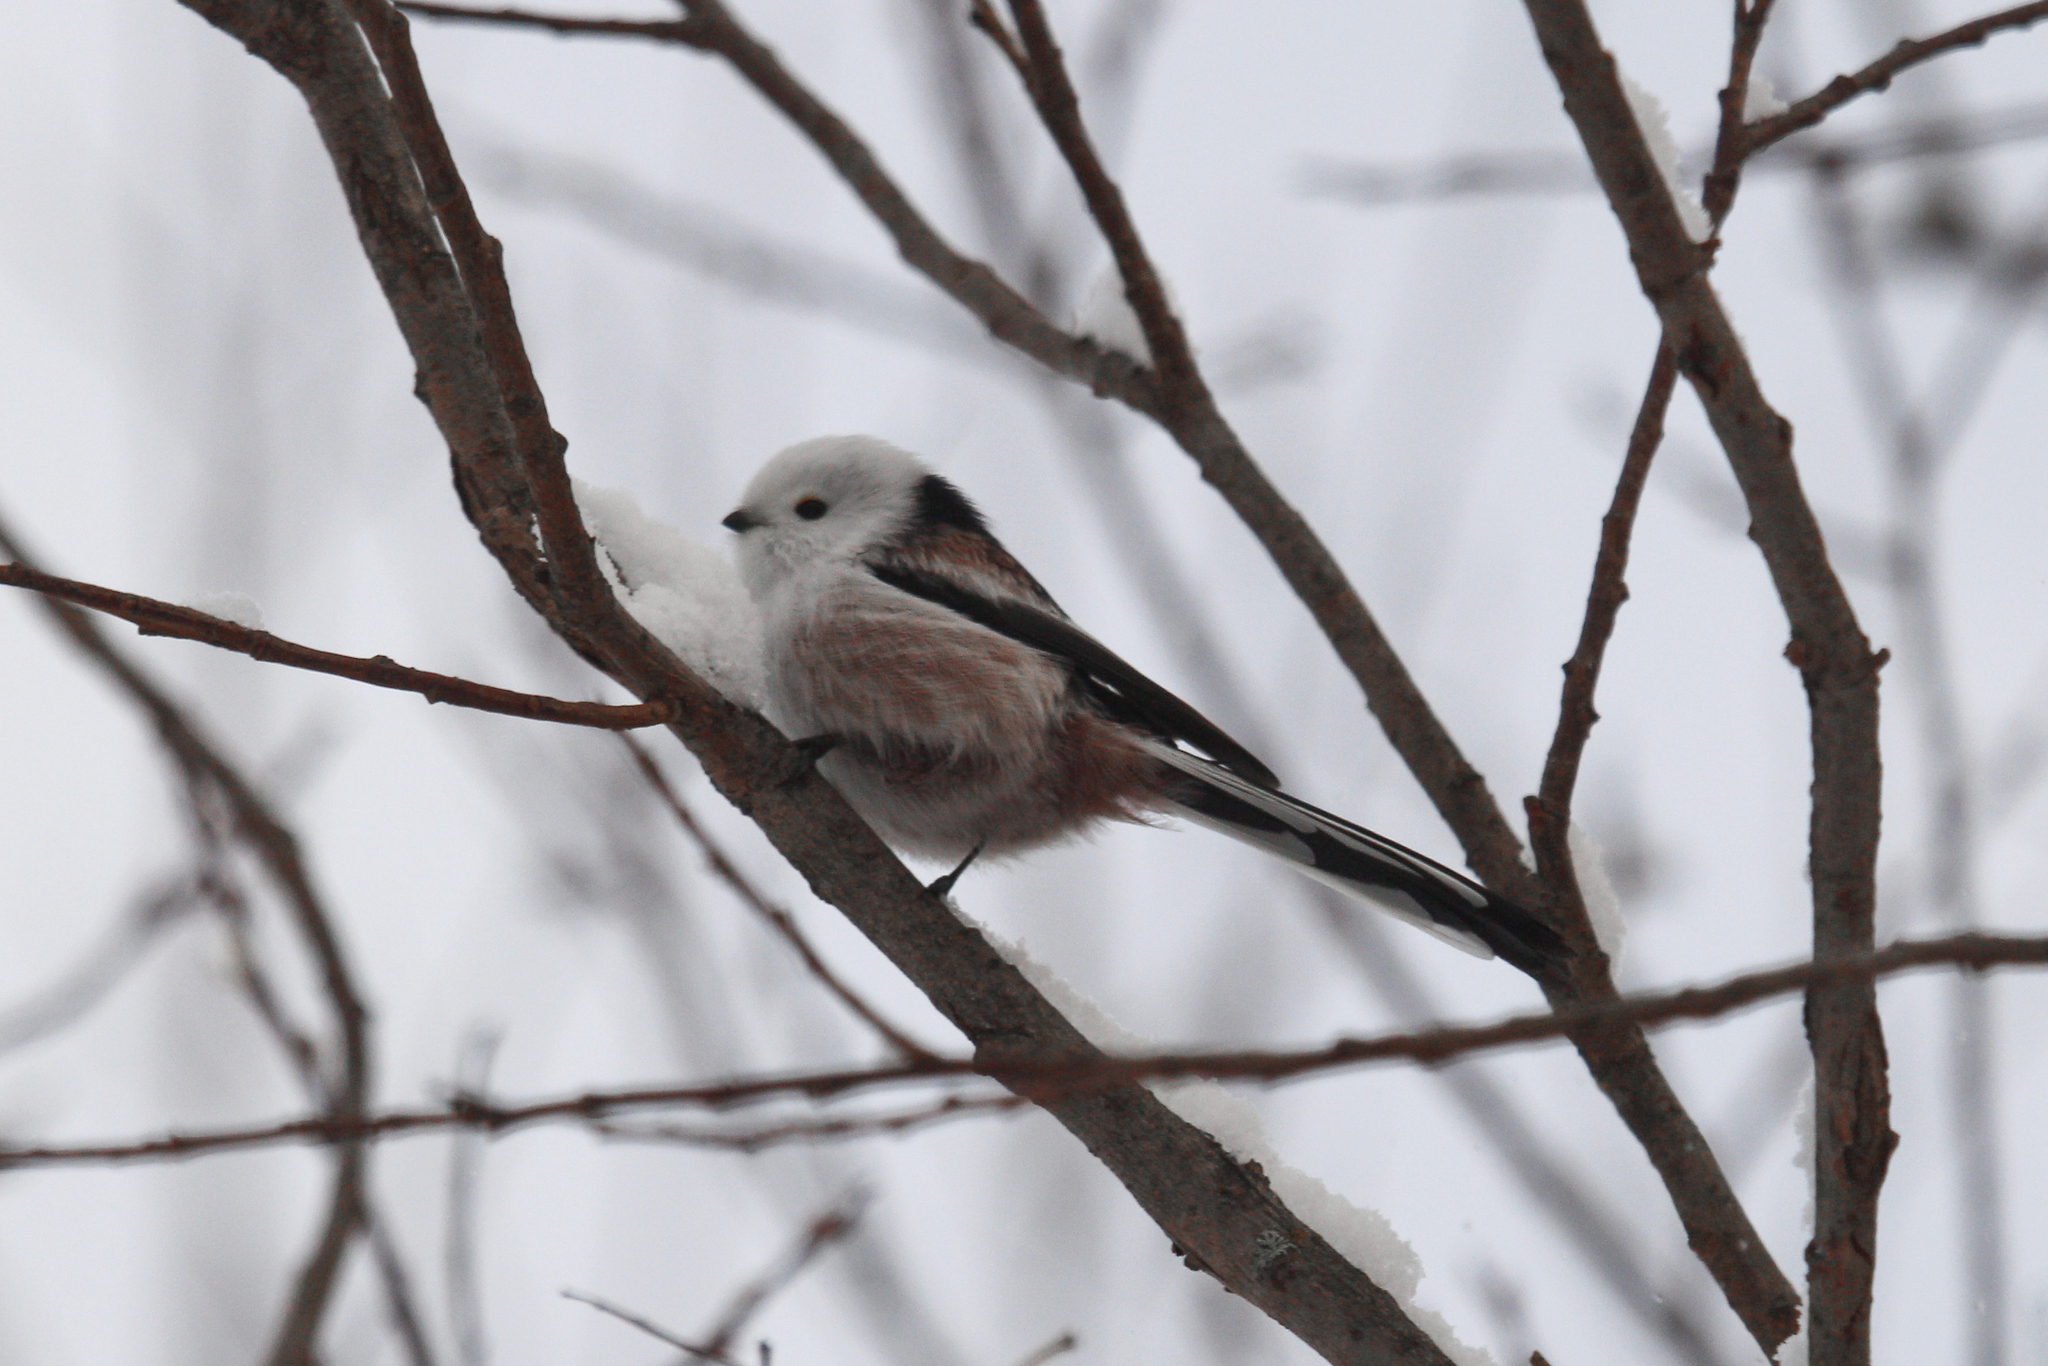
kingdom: Animalia
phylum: Chordata
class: Aves
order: Passeriformes
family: Aegithalidae
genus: Aegithalos
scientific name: Aegithalos caudatus
